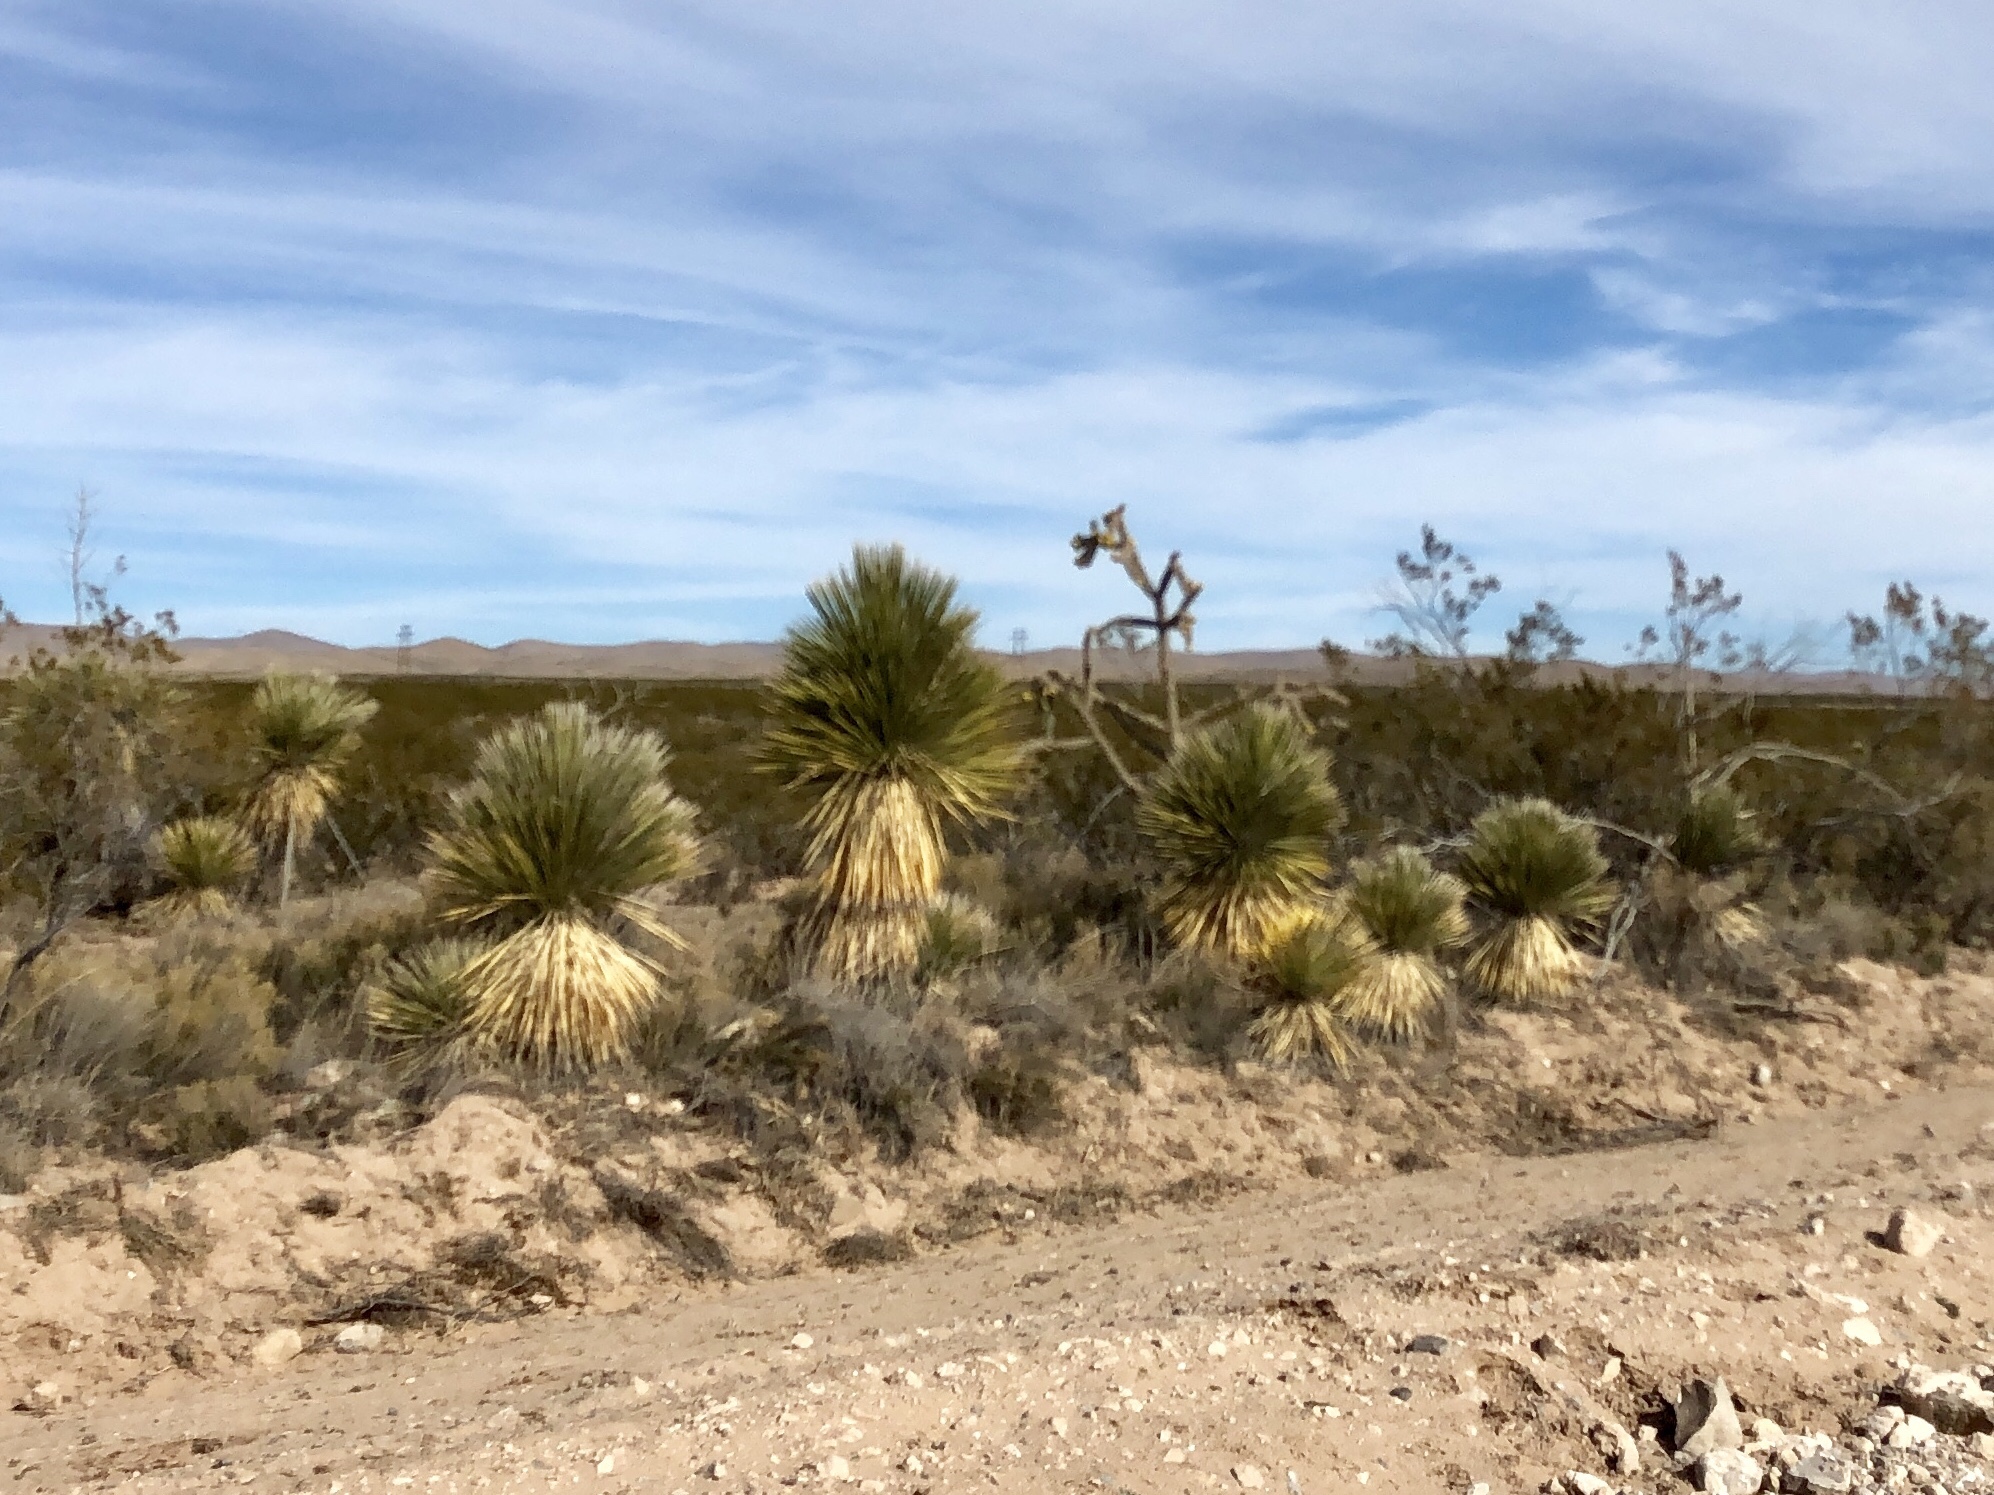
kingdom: Plantae
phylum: Tracheophyta
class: Liliopsida
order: Asparagales
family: Asparagaceae
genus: Yucca
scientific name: Yucca elata
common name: Palmella
